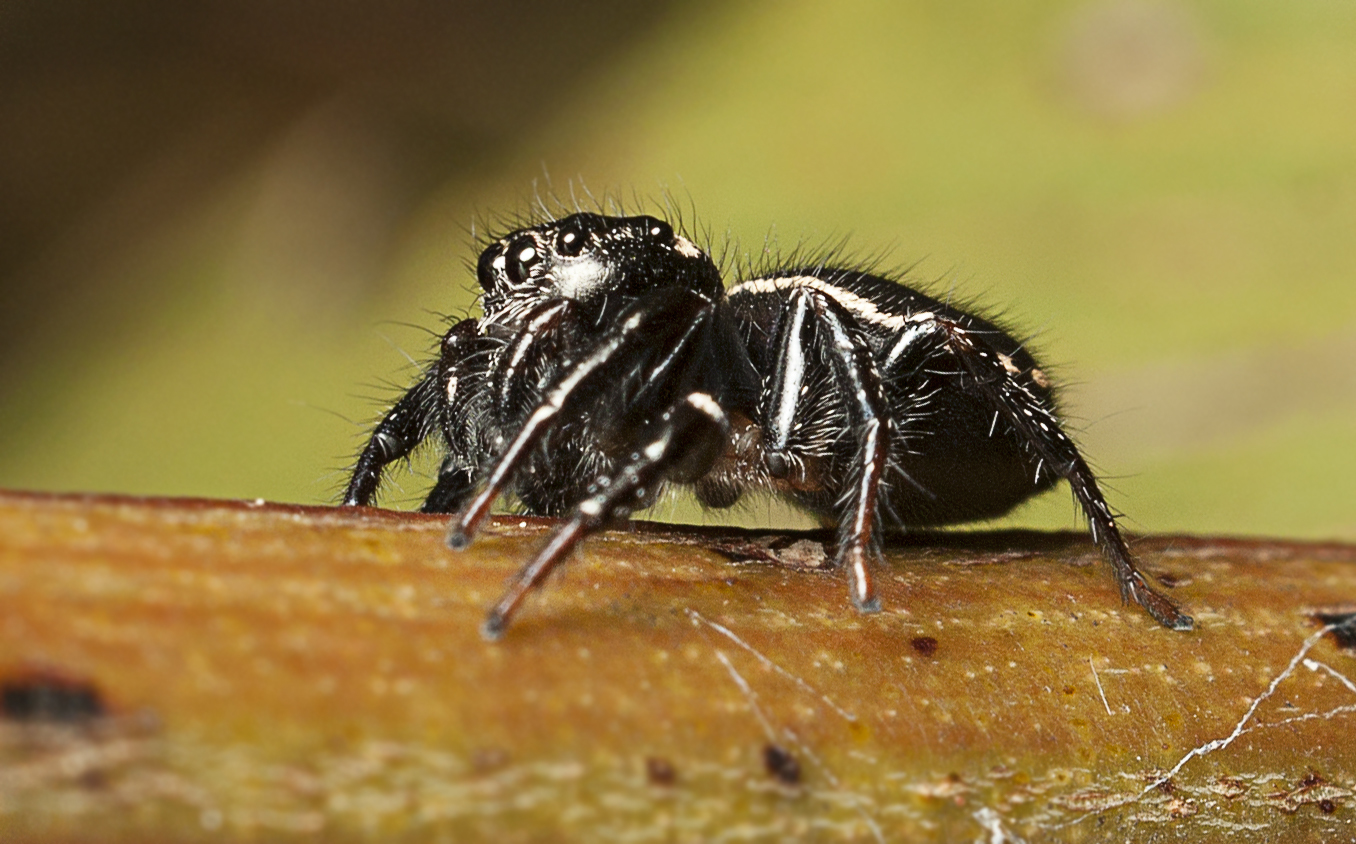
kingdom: Animalia
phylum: Arthropoda
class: Arachnida
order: Araneae
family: Salticidae
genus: Zenodorus
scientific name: Zenodorus orbiculatus
